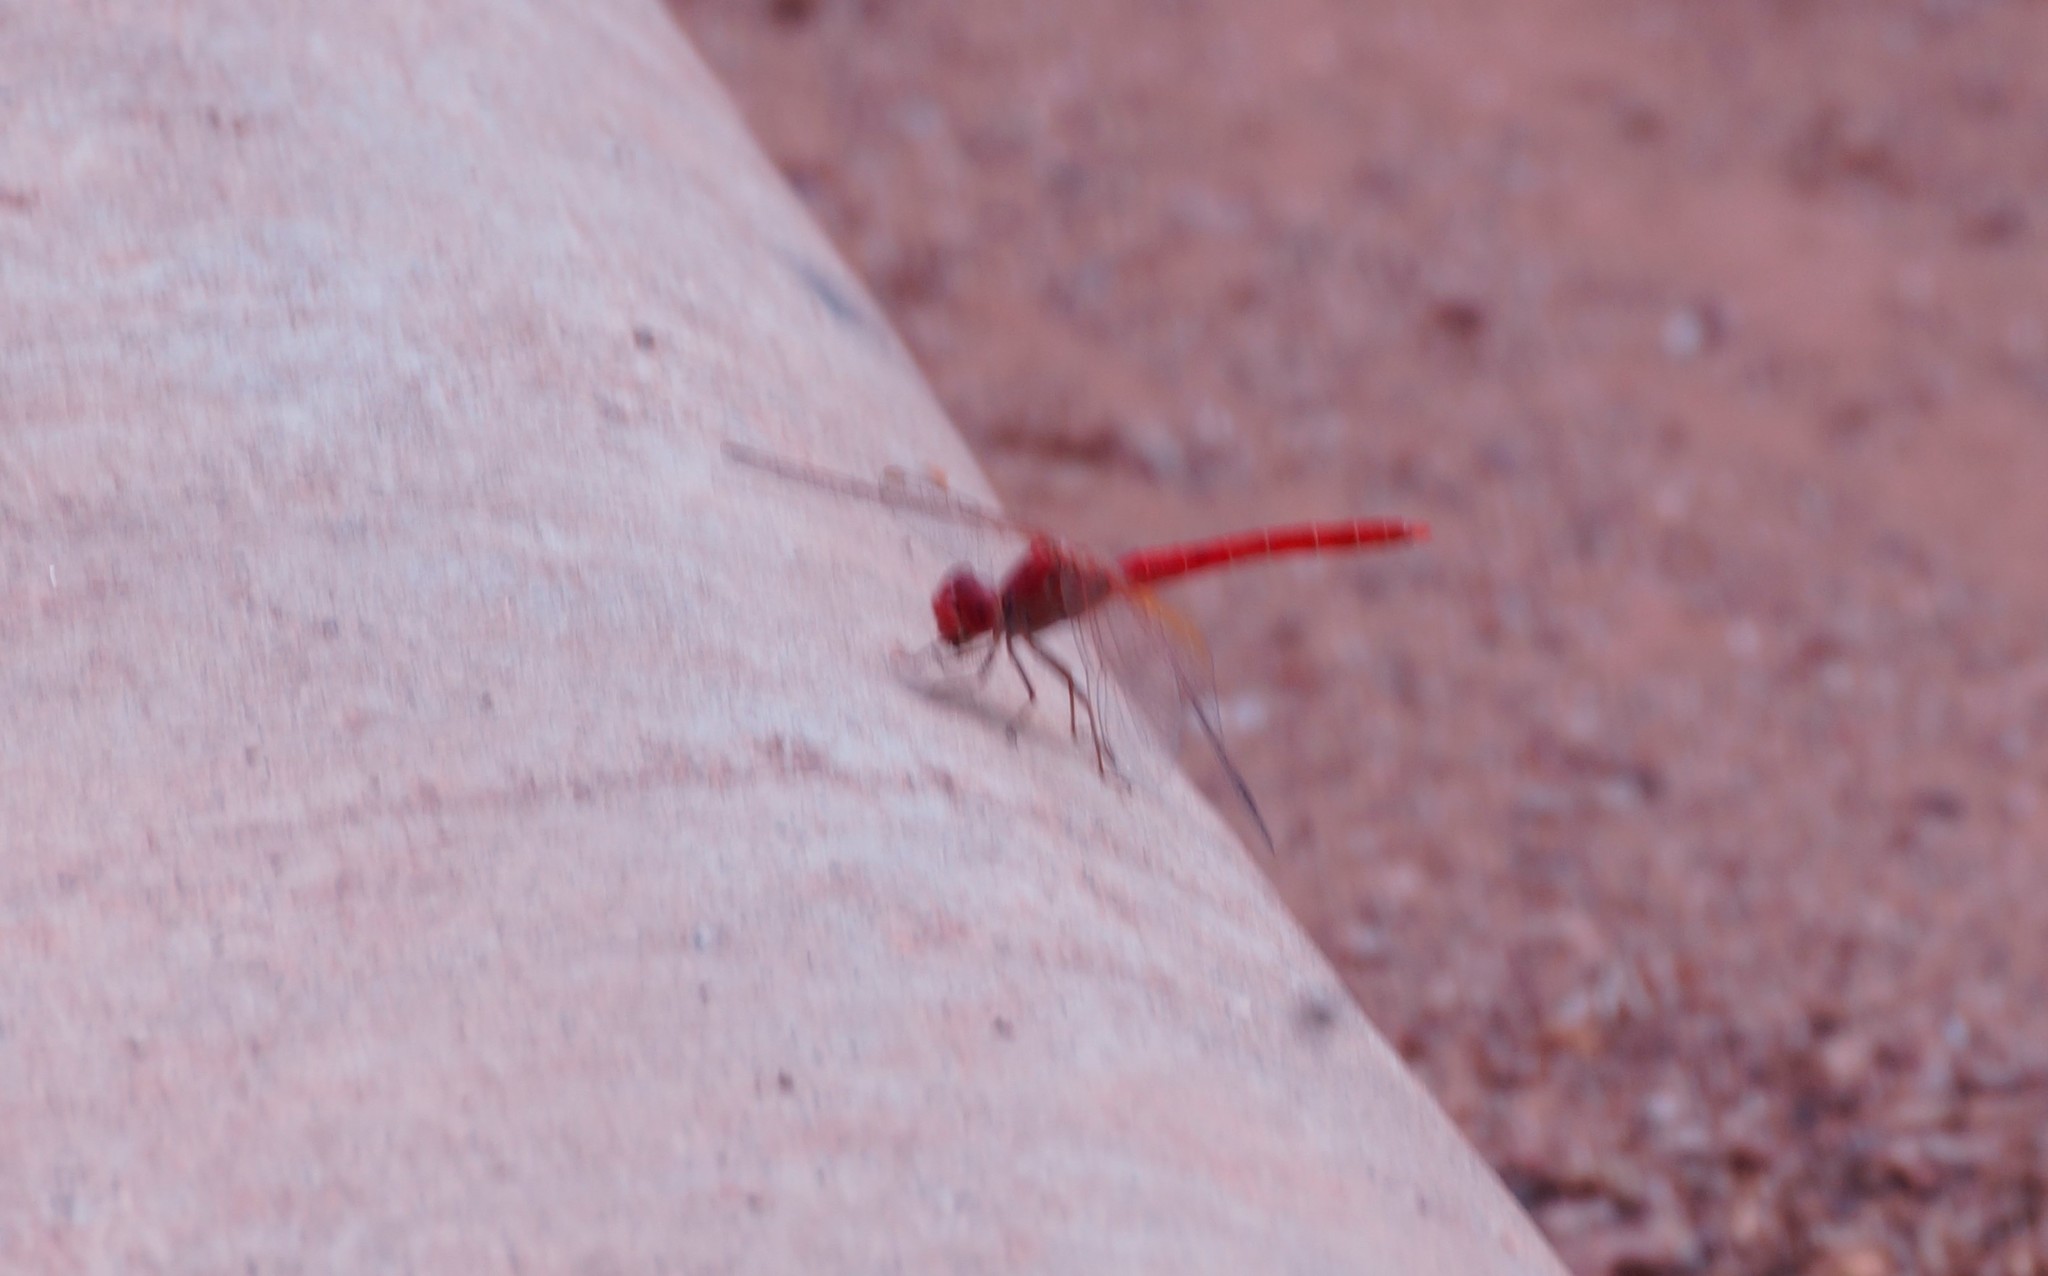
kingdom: Animalia
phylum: Arthropoda
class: Insecta
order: Odonata
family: Libellulidae
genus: Diplacodes
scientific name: Diplacodes haematodes
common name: Scarlet percher
